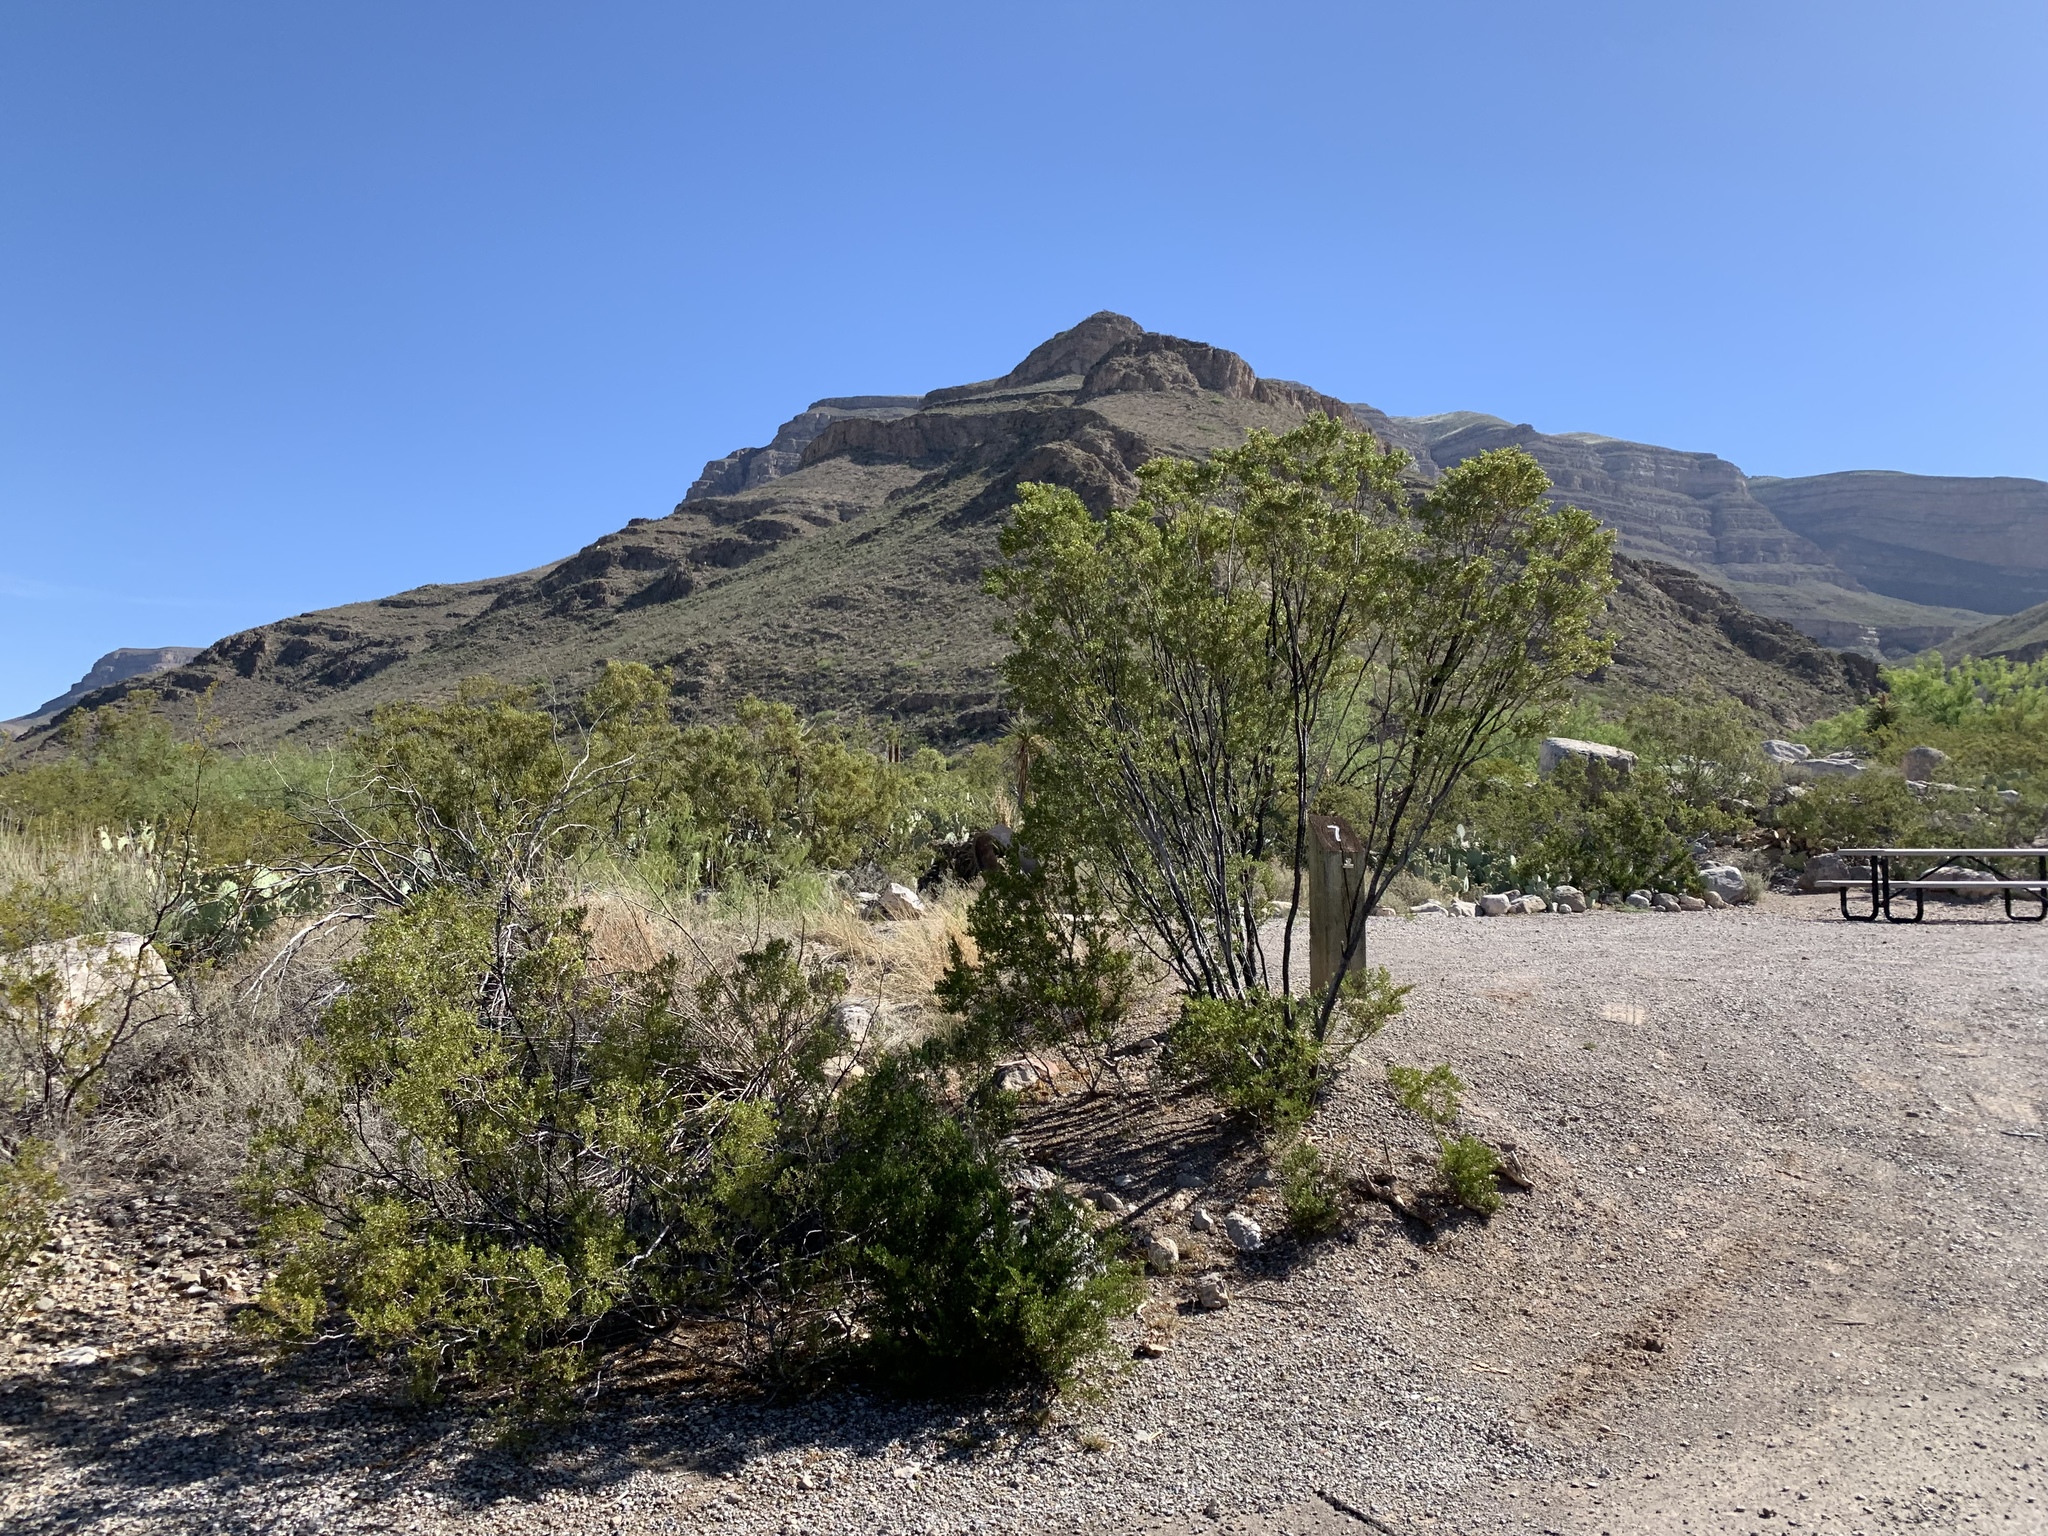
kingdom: Plantae
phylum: Tracheophyta
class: Magnoliopsida
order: Zygophyllales
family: Zygophyllaceae
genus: Larrea
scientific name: Larrea tridentata
